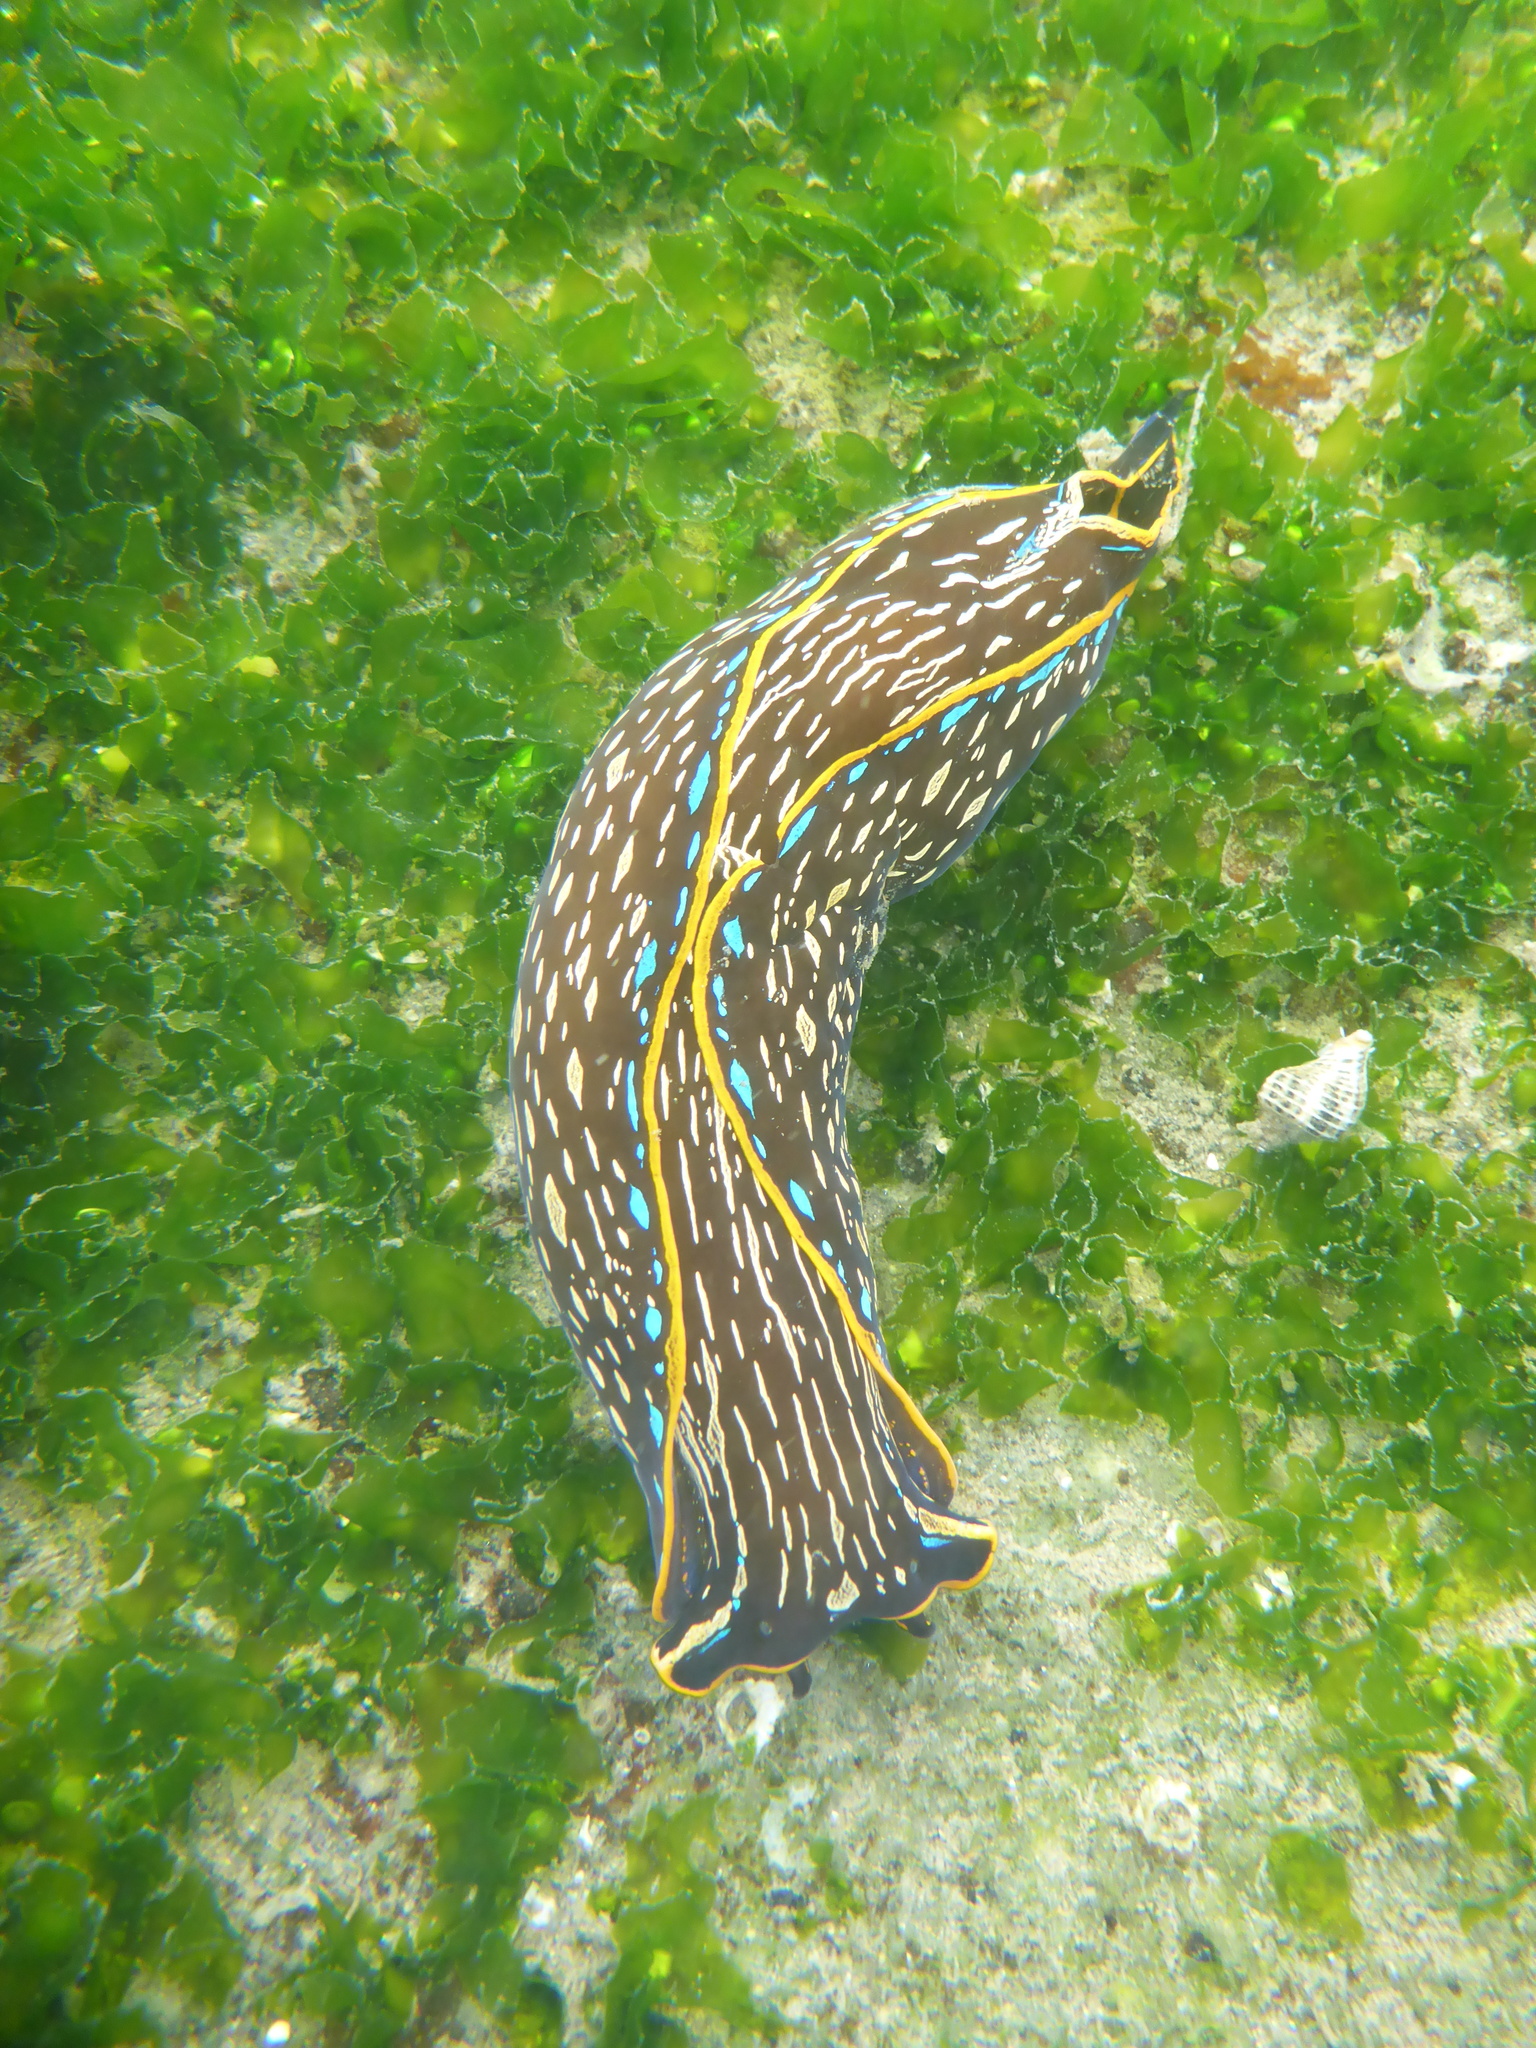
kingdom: Animalia
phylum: Mollusca
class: Gastropoda
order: Cephalaspidea
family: Aglajidae
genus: Navanax
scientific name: Navanax inermis
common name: California aglaja
